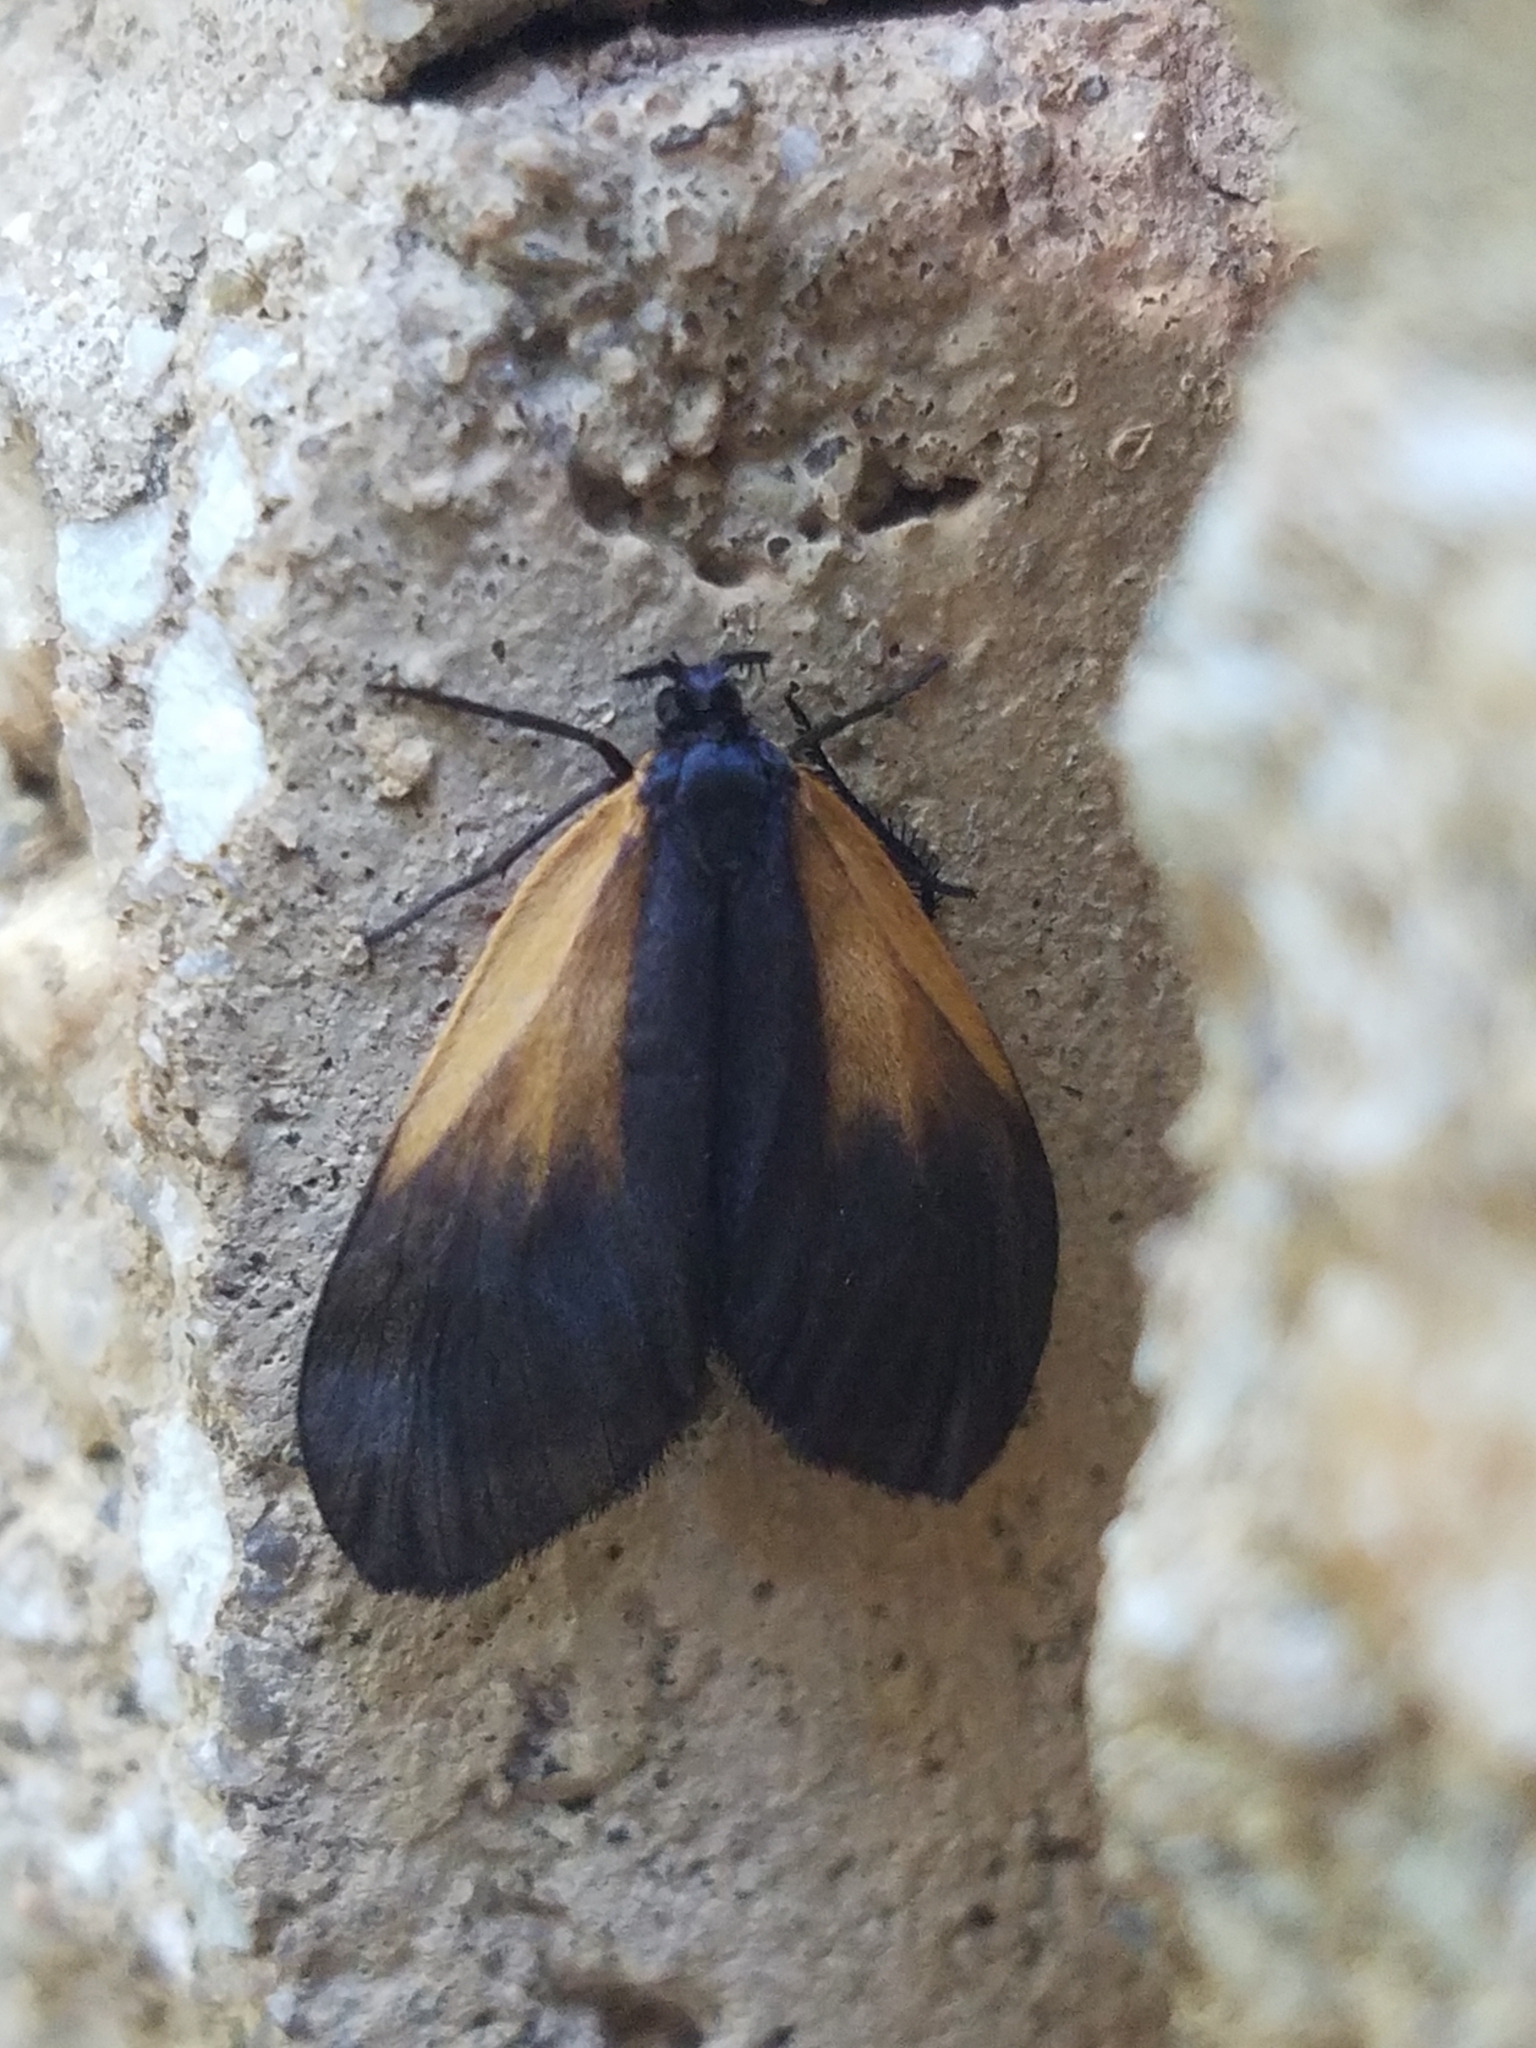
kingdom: Animalia
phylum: Arthropoda
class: Insecta
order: Lepidoptera
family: Zygaenidae
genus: Malthaca
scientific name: Malthaca dimidiata
